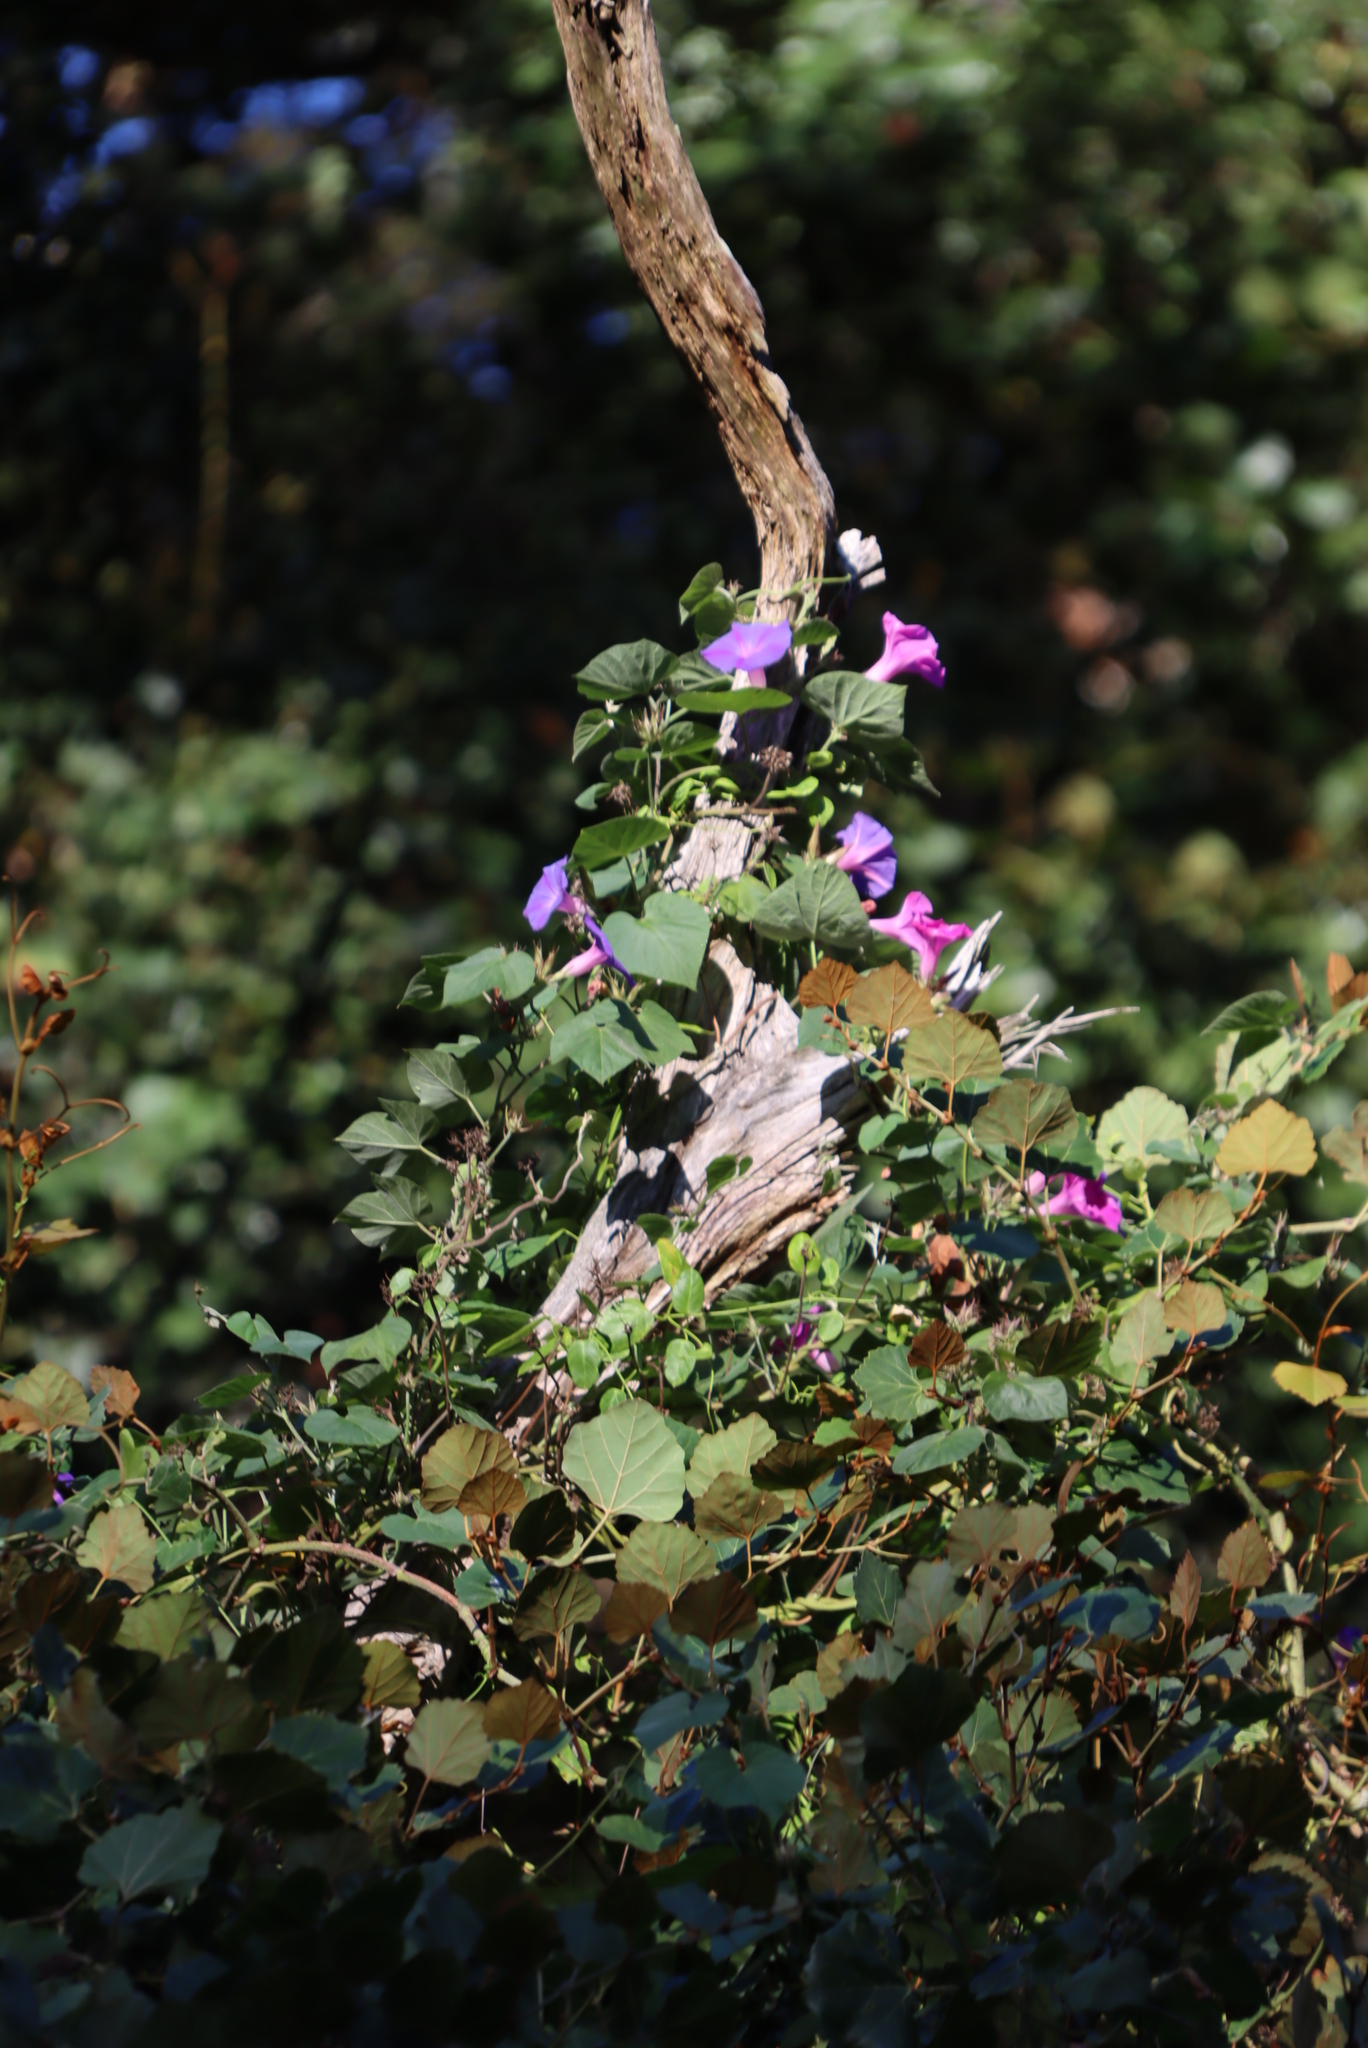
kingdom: Plantae
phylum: Tracheophyta
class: Magnoliopsida
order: Solanales
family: Convolvulaceae
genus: Ipomoea
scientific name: Ipomoea indica
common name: Blue dawnflower
